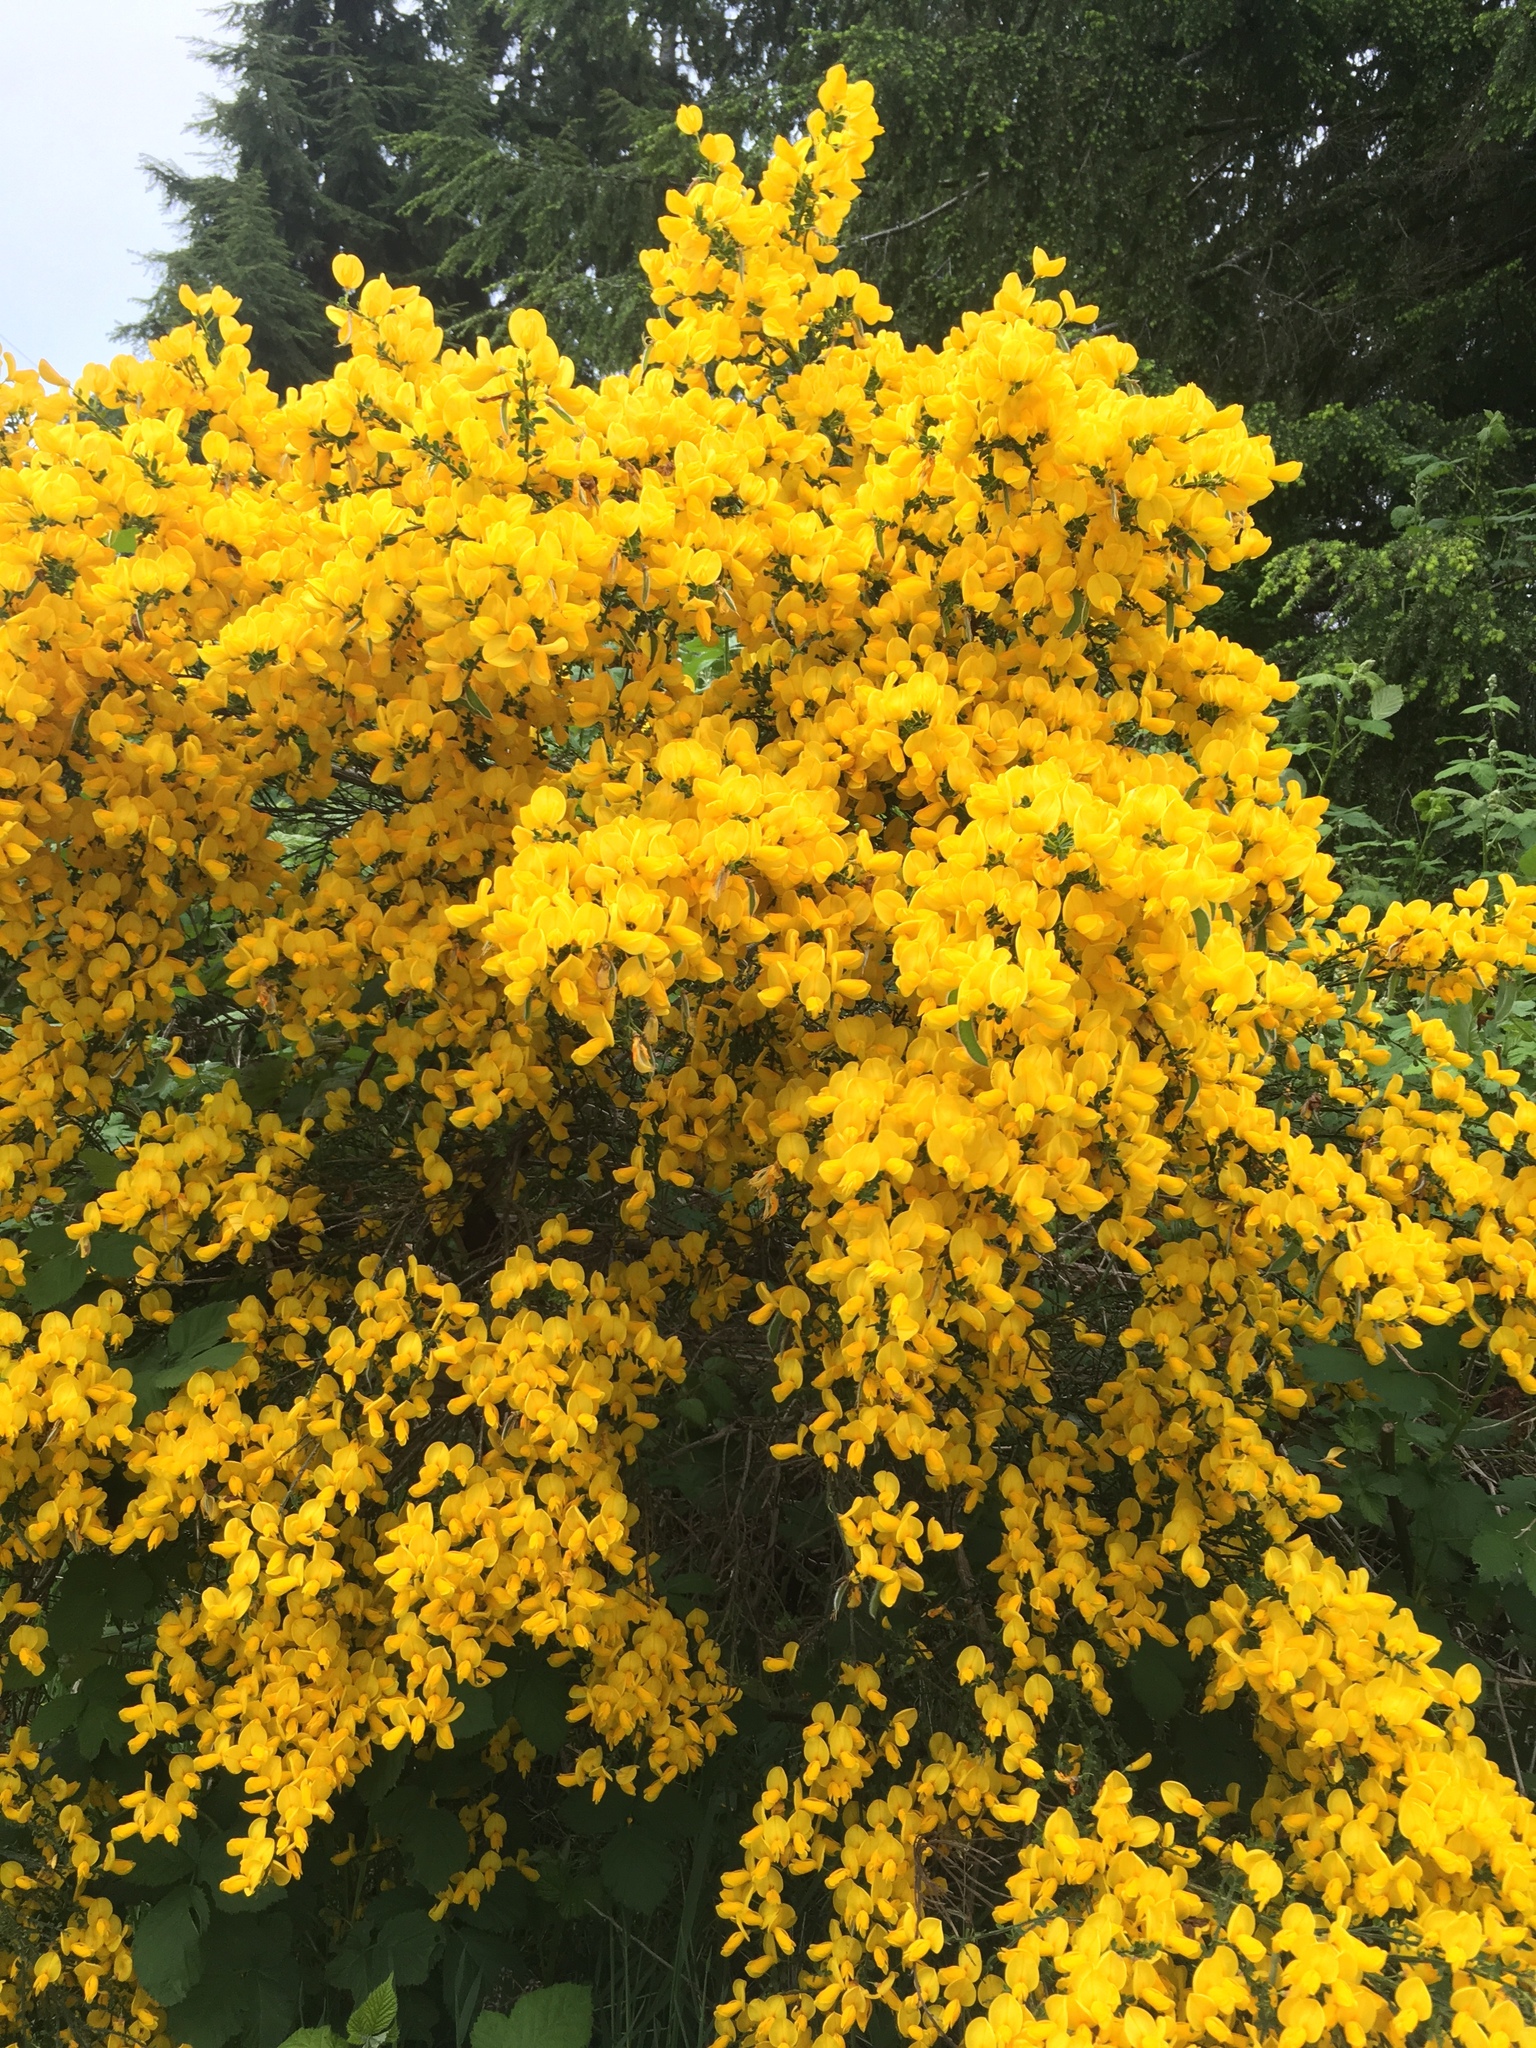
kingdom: Plantae
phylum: Tracheophyta
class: Magnoliopsida
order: Fabales
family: Fabaceae
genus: Cytisus
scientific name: Cytisus scoparius
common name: Scotch broom
